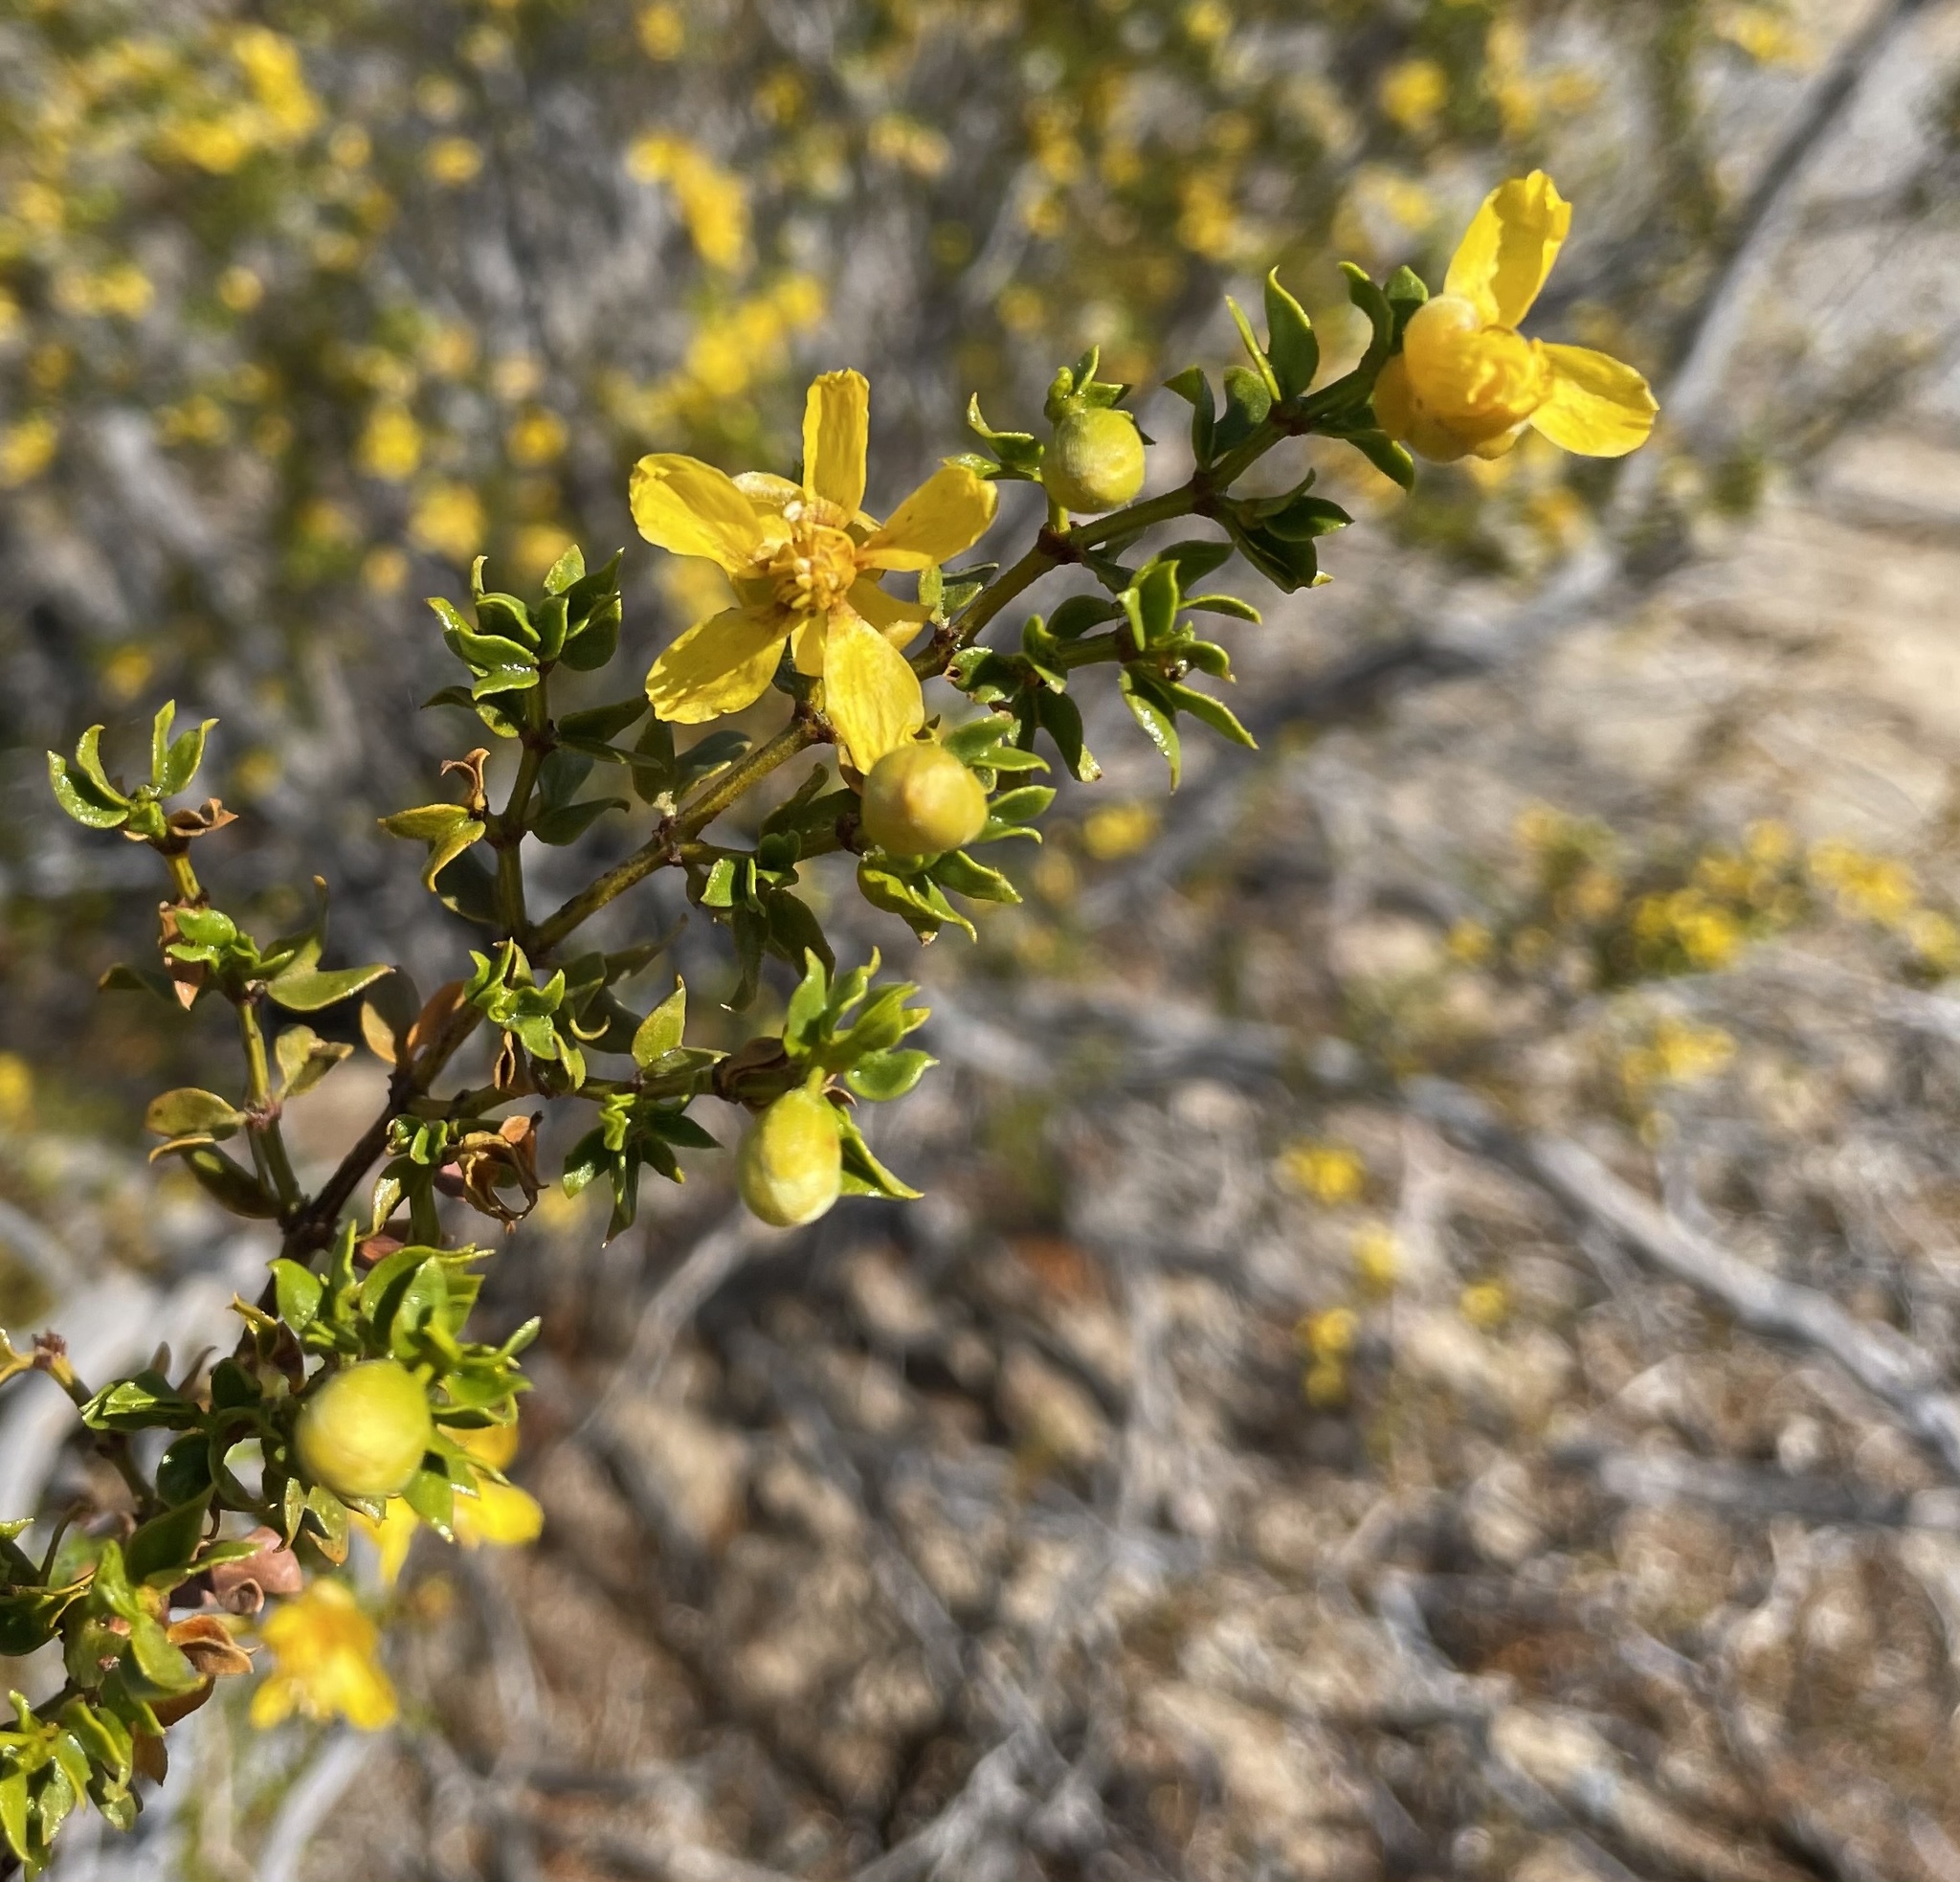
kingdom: Plantae
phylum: Tracheophyta
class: Magnoliopsida
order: Zygophyllales
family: Zygophyllaceae
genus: Larrea
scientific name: Larrea tridentata
